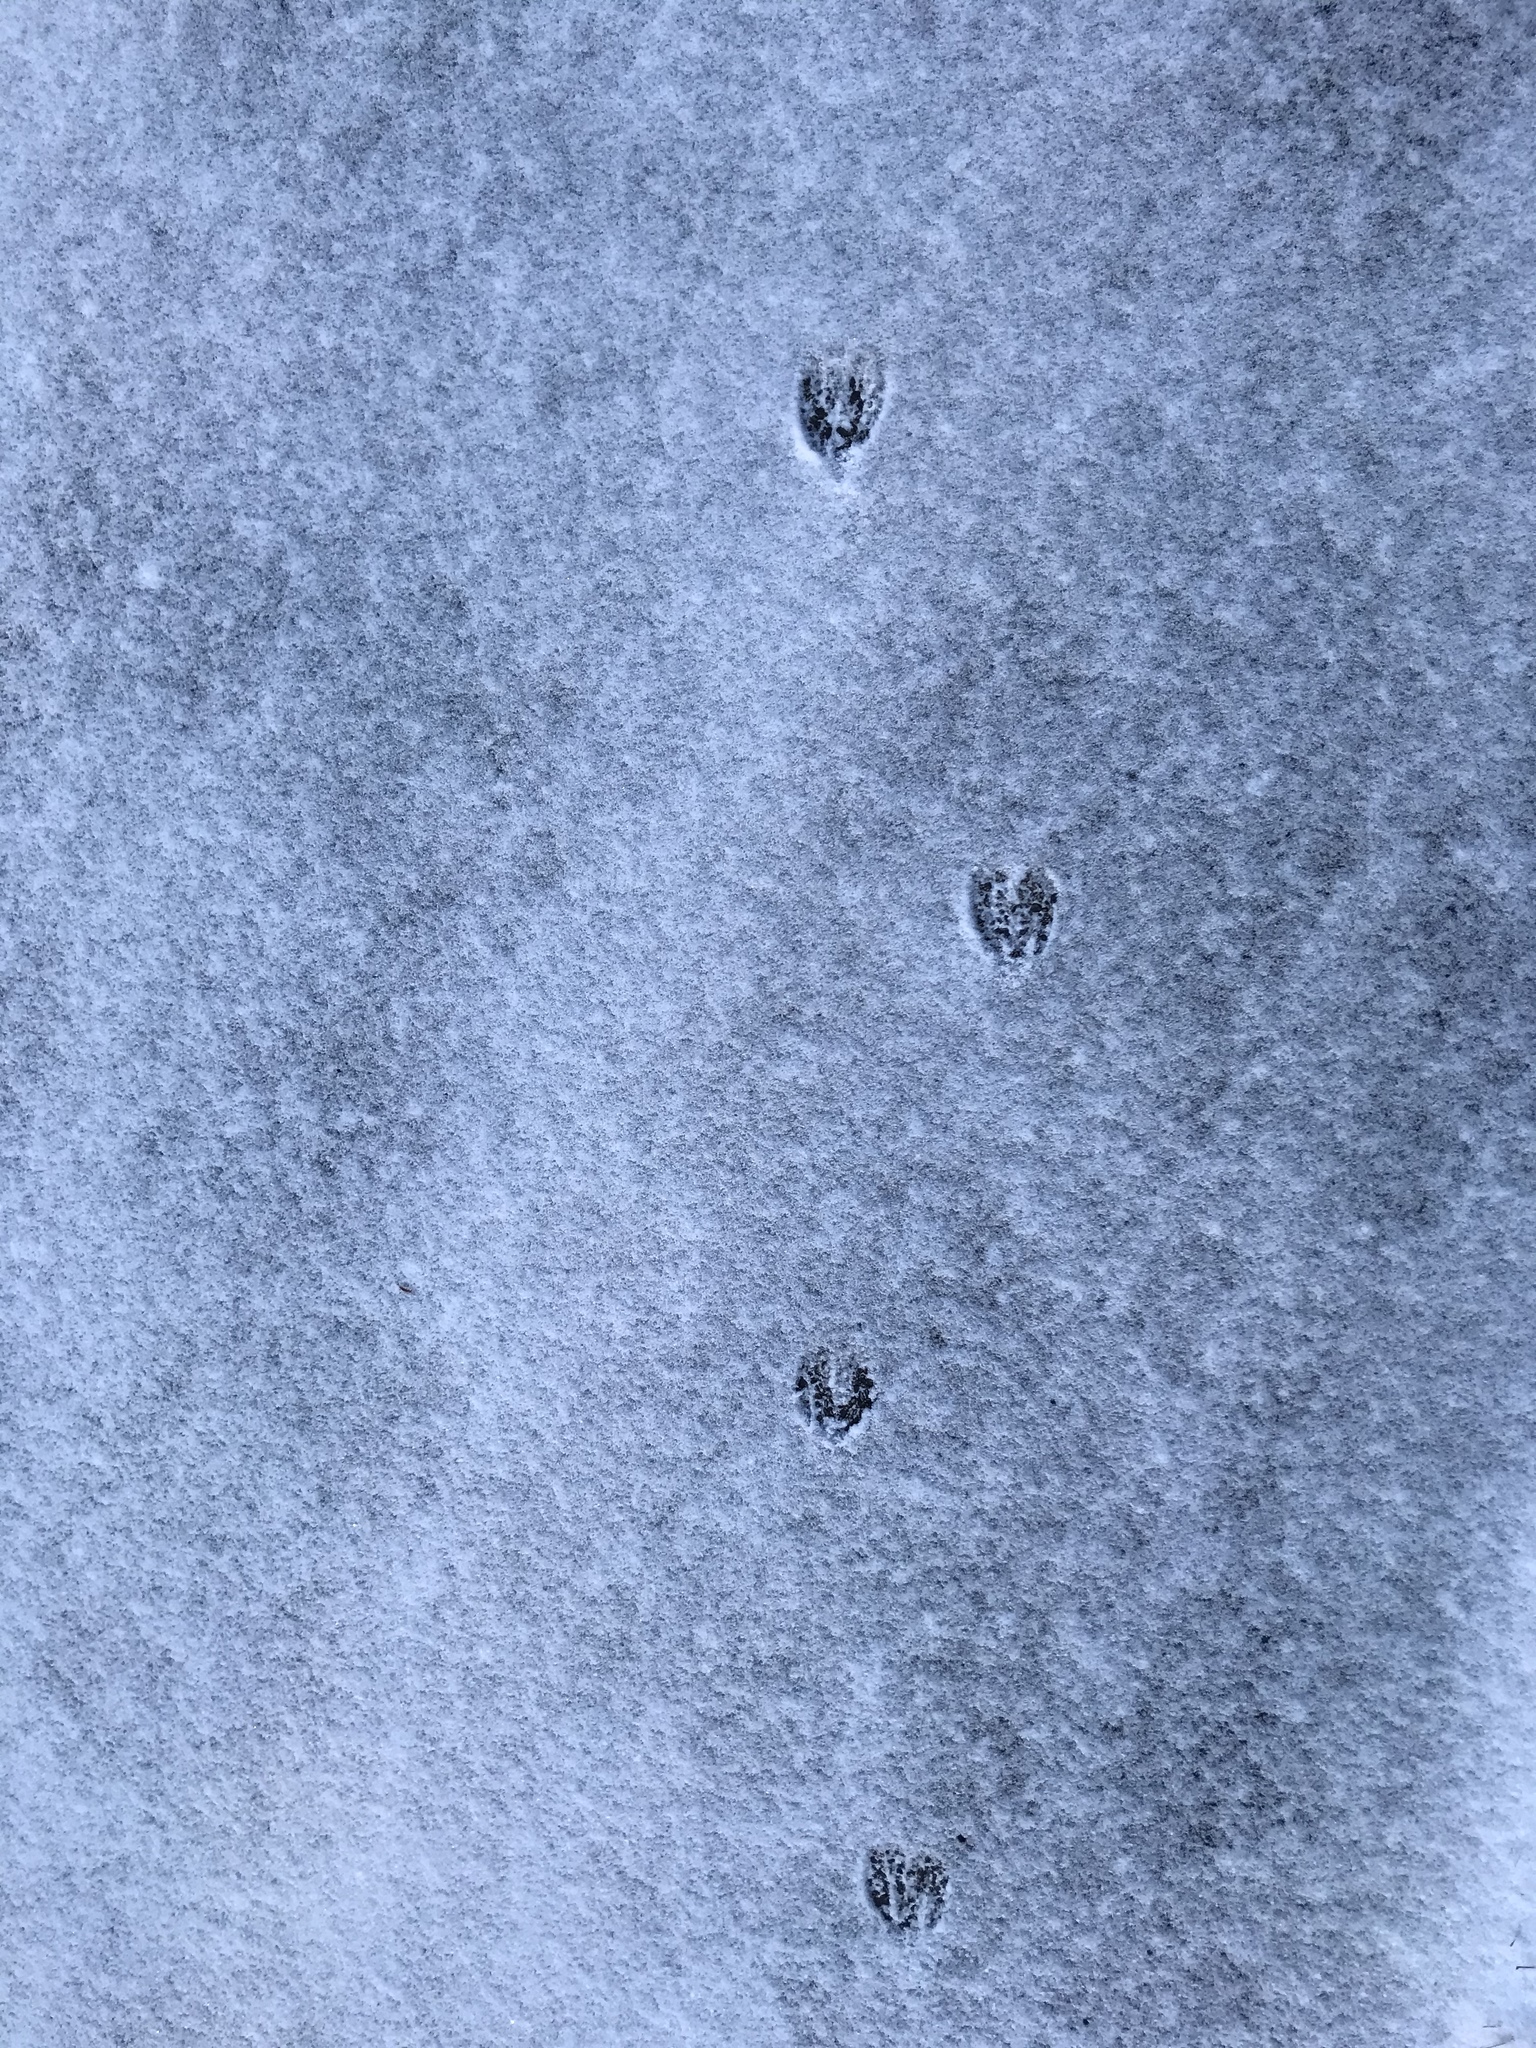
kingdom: Animalia
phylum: Chordata
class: Mammalia
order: Artiodactyla
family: Cervidae
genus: Odocoileus
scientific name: Odocoileus virginianus
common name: White-tailed deer
